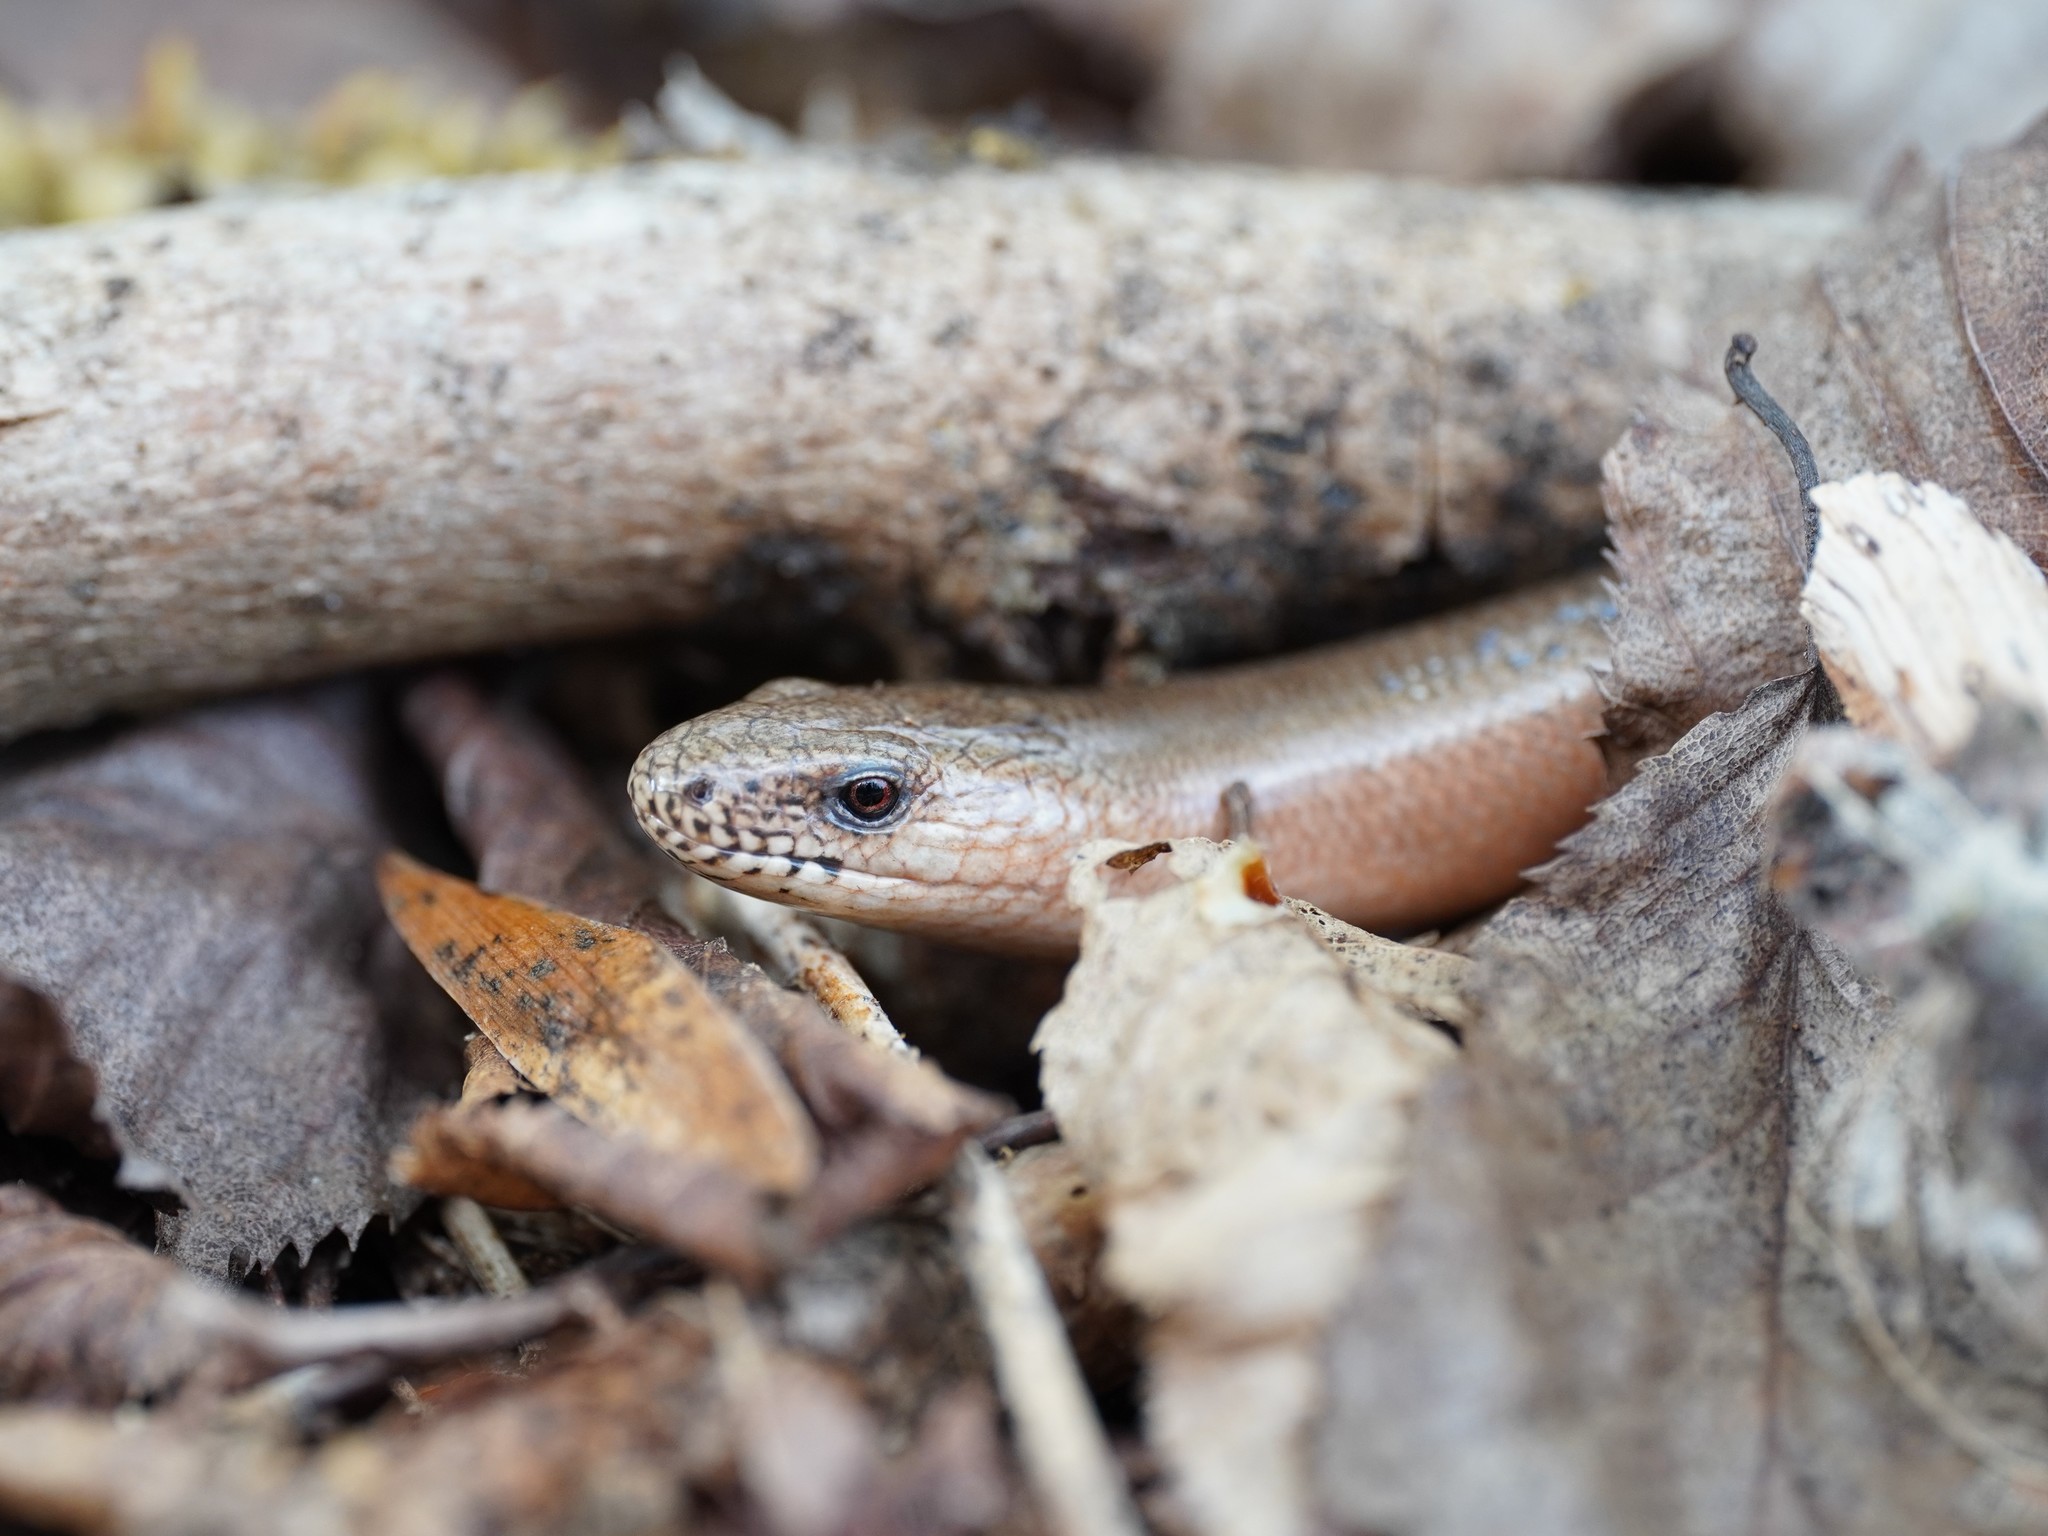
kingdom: Animalia
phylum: Chordata
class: Squamata
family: Anguidae
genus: Anguis
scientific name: Anguis fragilis
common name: Slow worm
